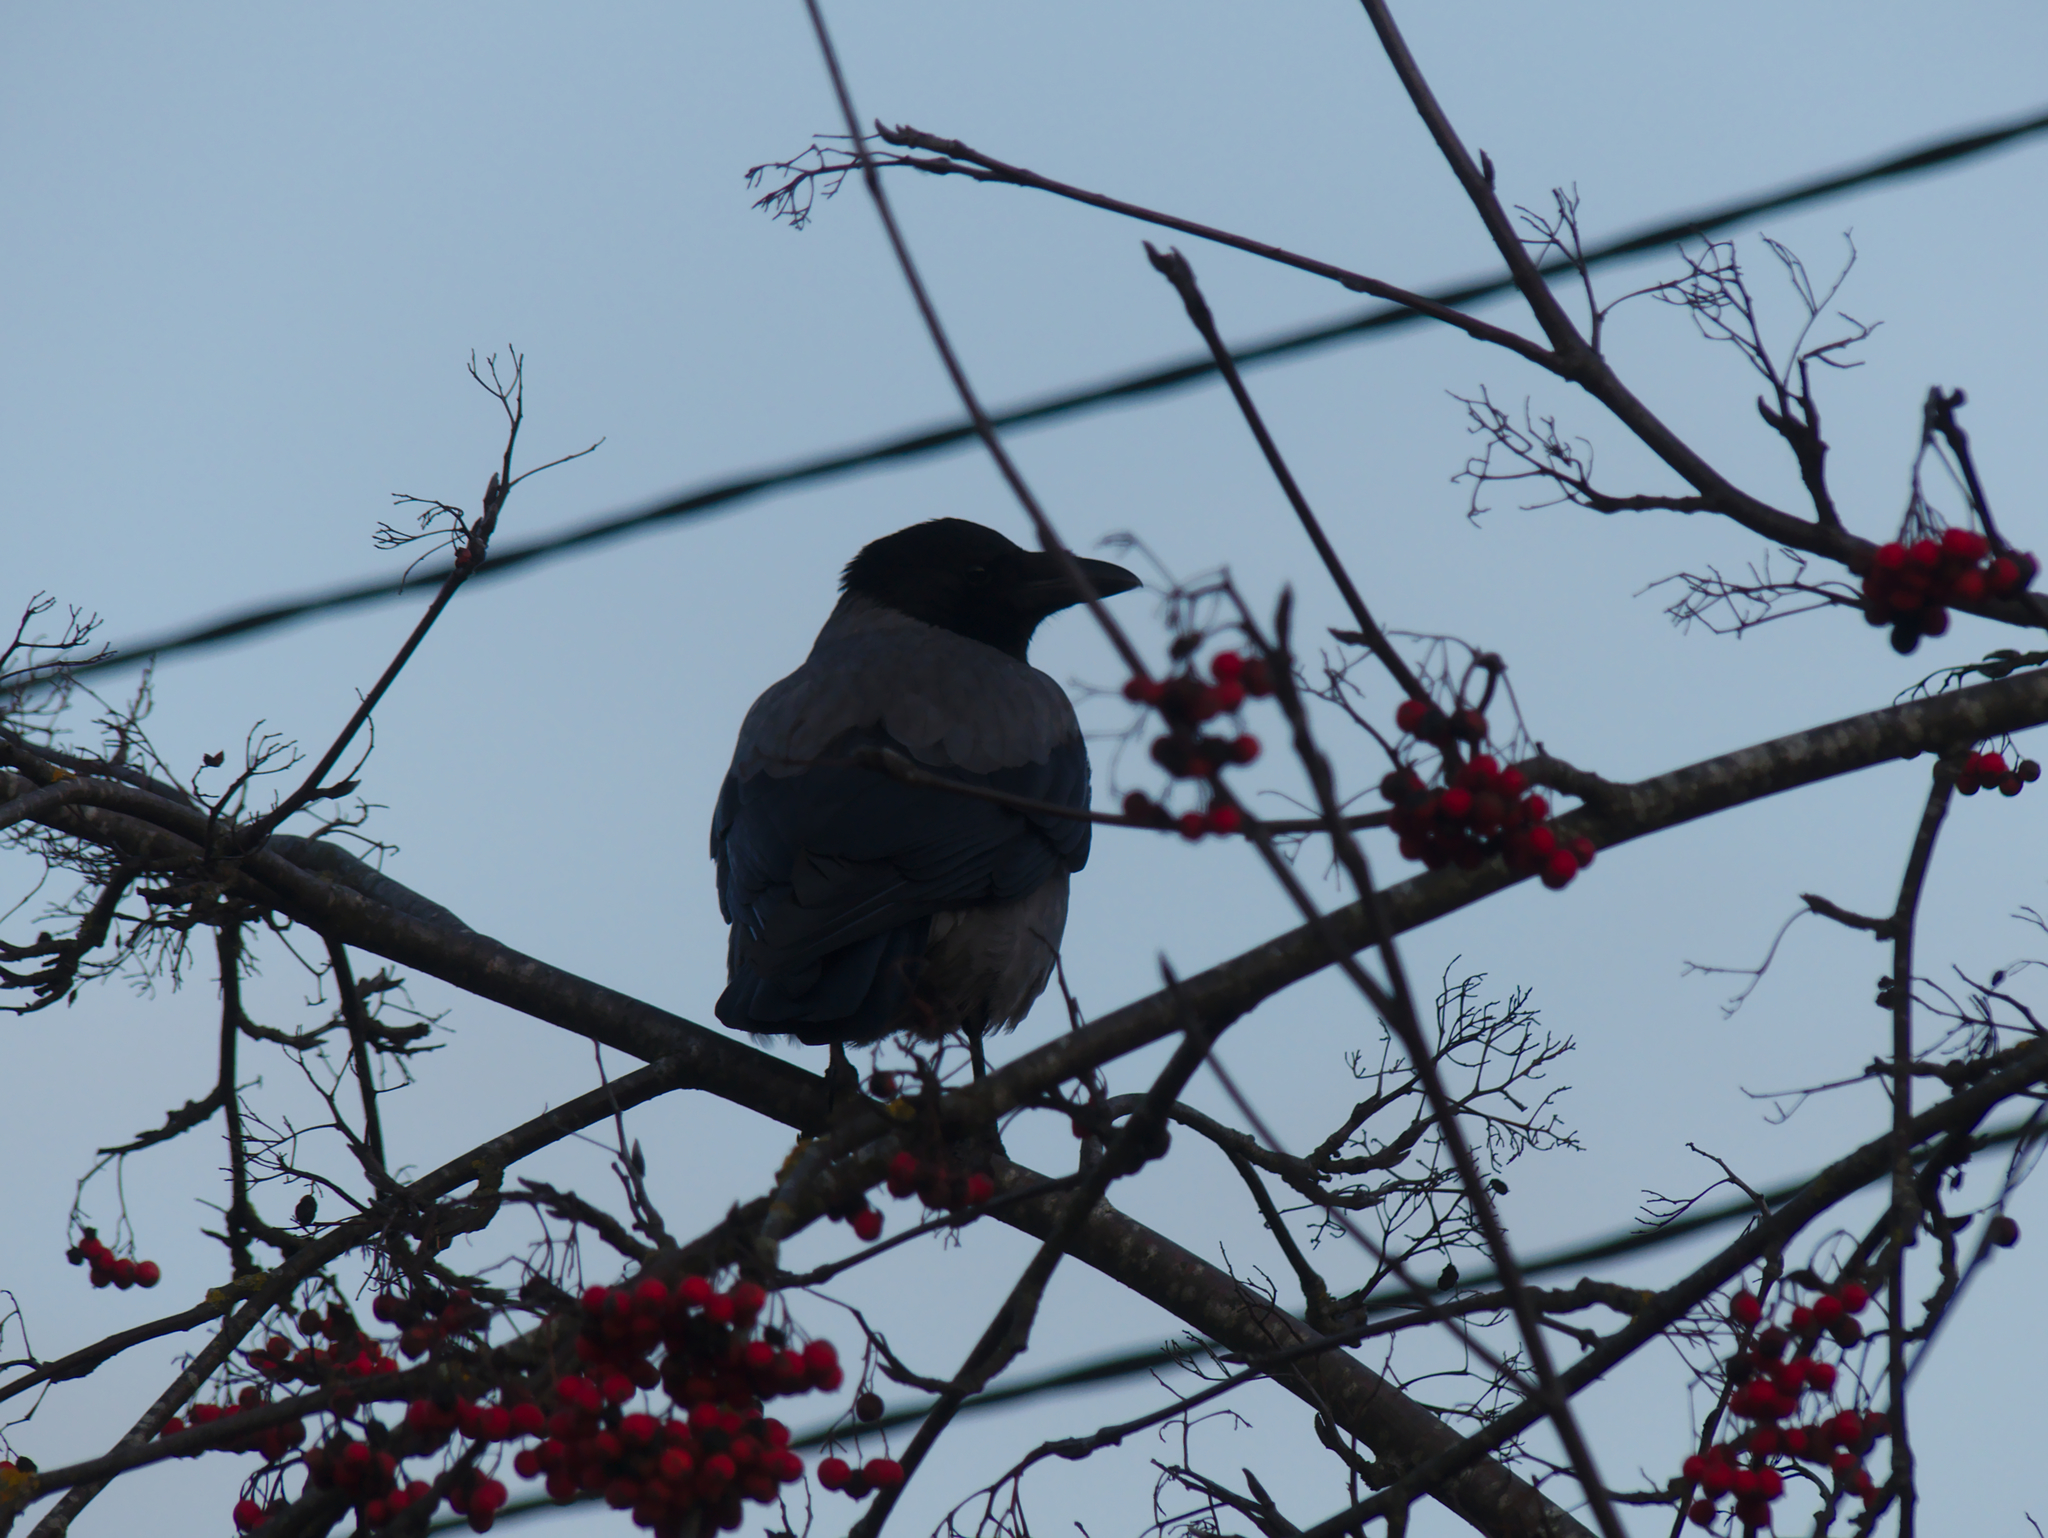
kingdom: Animalia
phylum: Chordata
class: Aves
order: Passeriformes
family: Corvidae
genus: Corvus
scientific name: Corvus cornix
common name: Hooded crow
